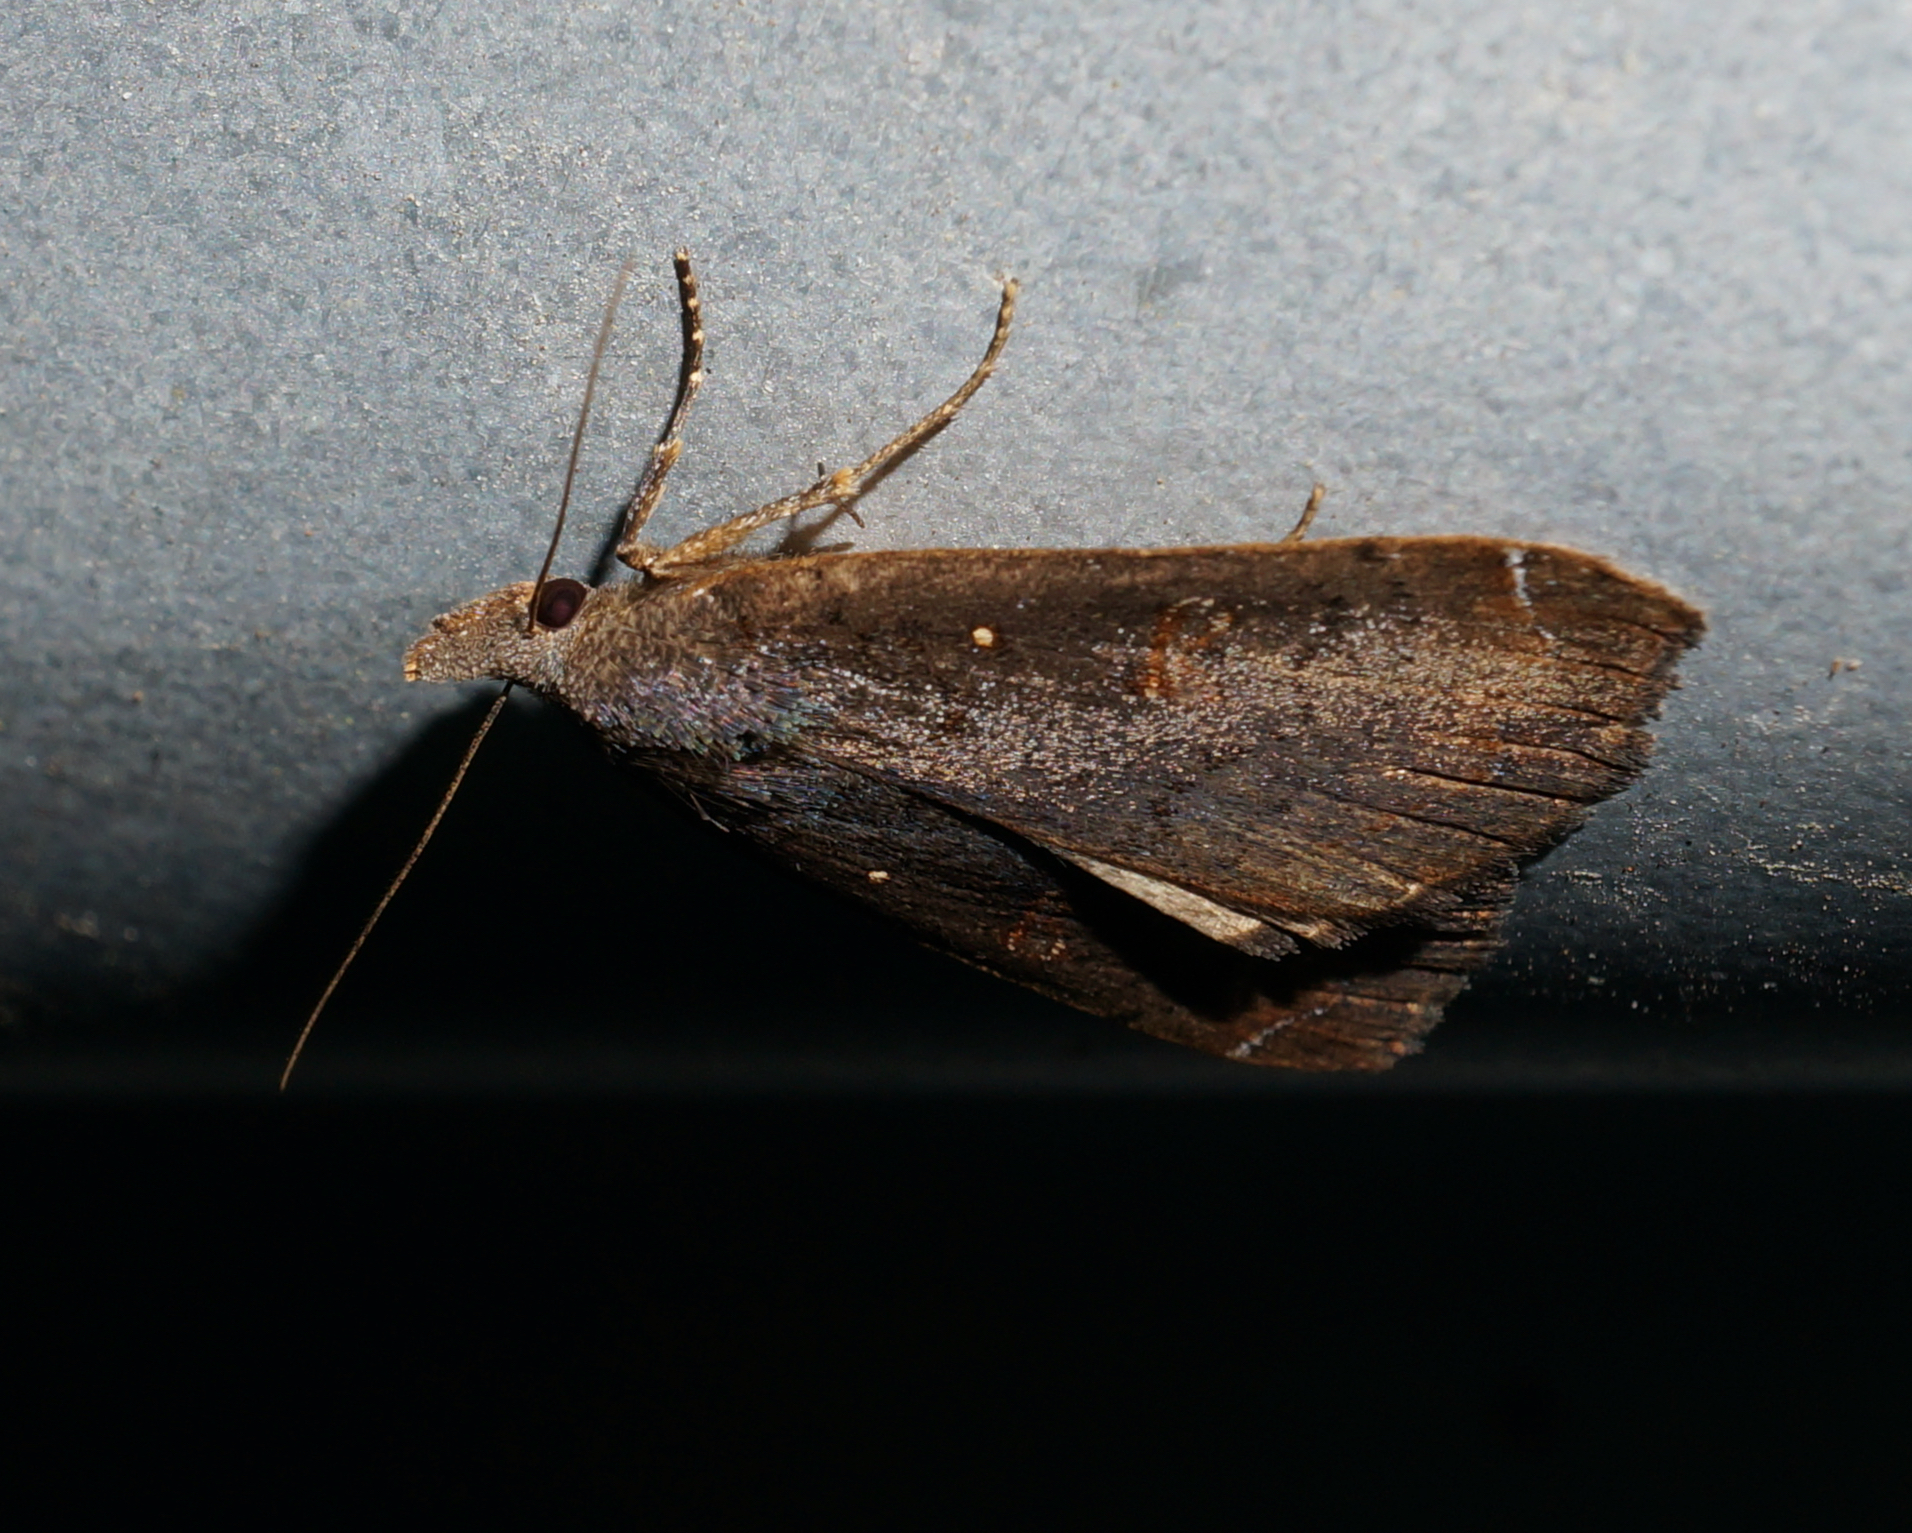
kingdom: Animalia
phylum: Arthropoda
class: Insecta
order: Lepidoptera
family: Erebidae
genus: Rhapsa
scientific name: Rhapsa scotosialis
